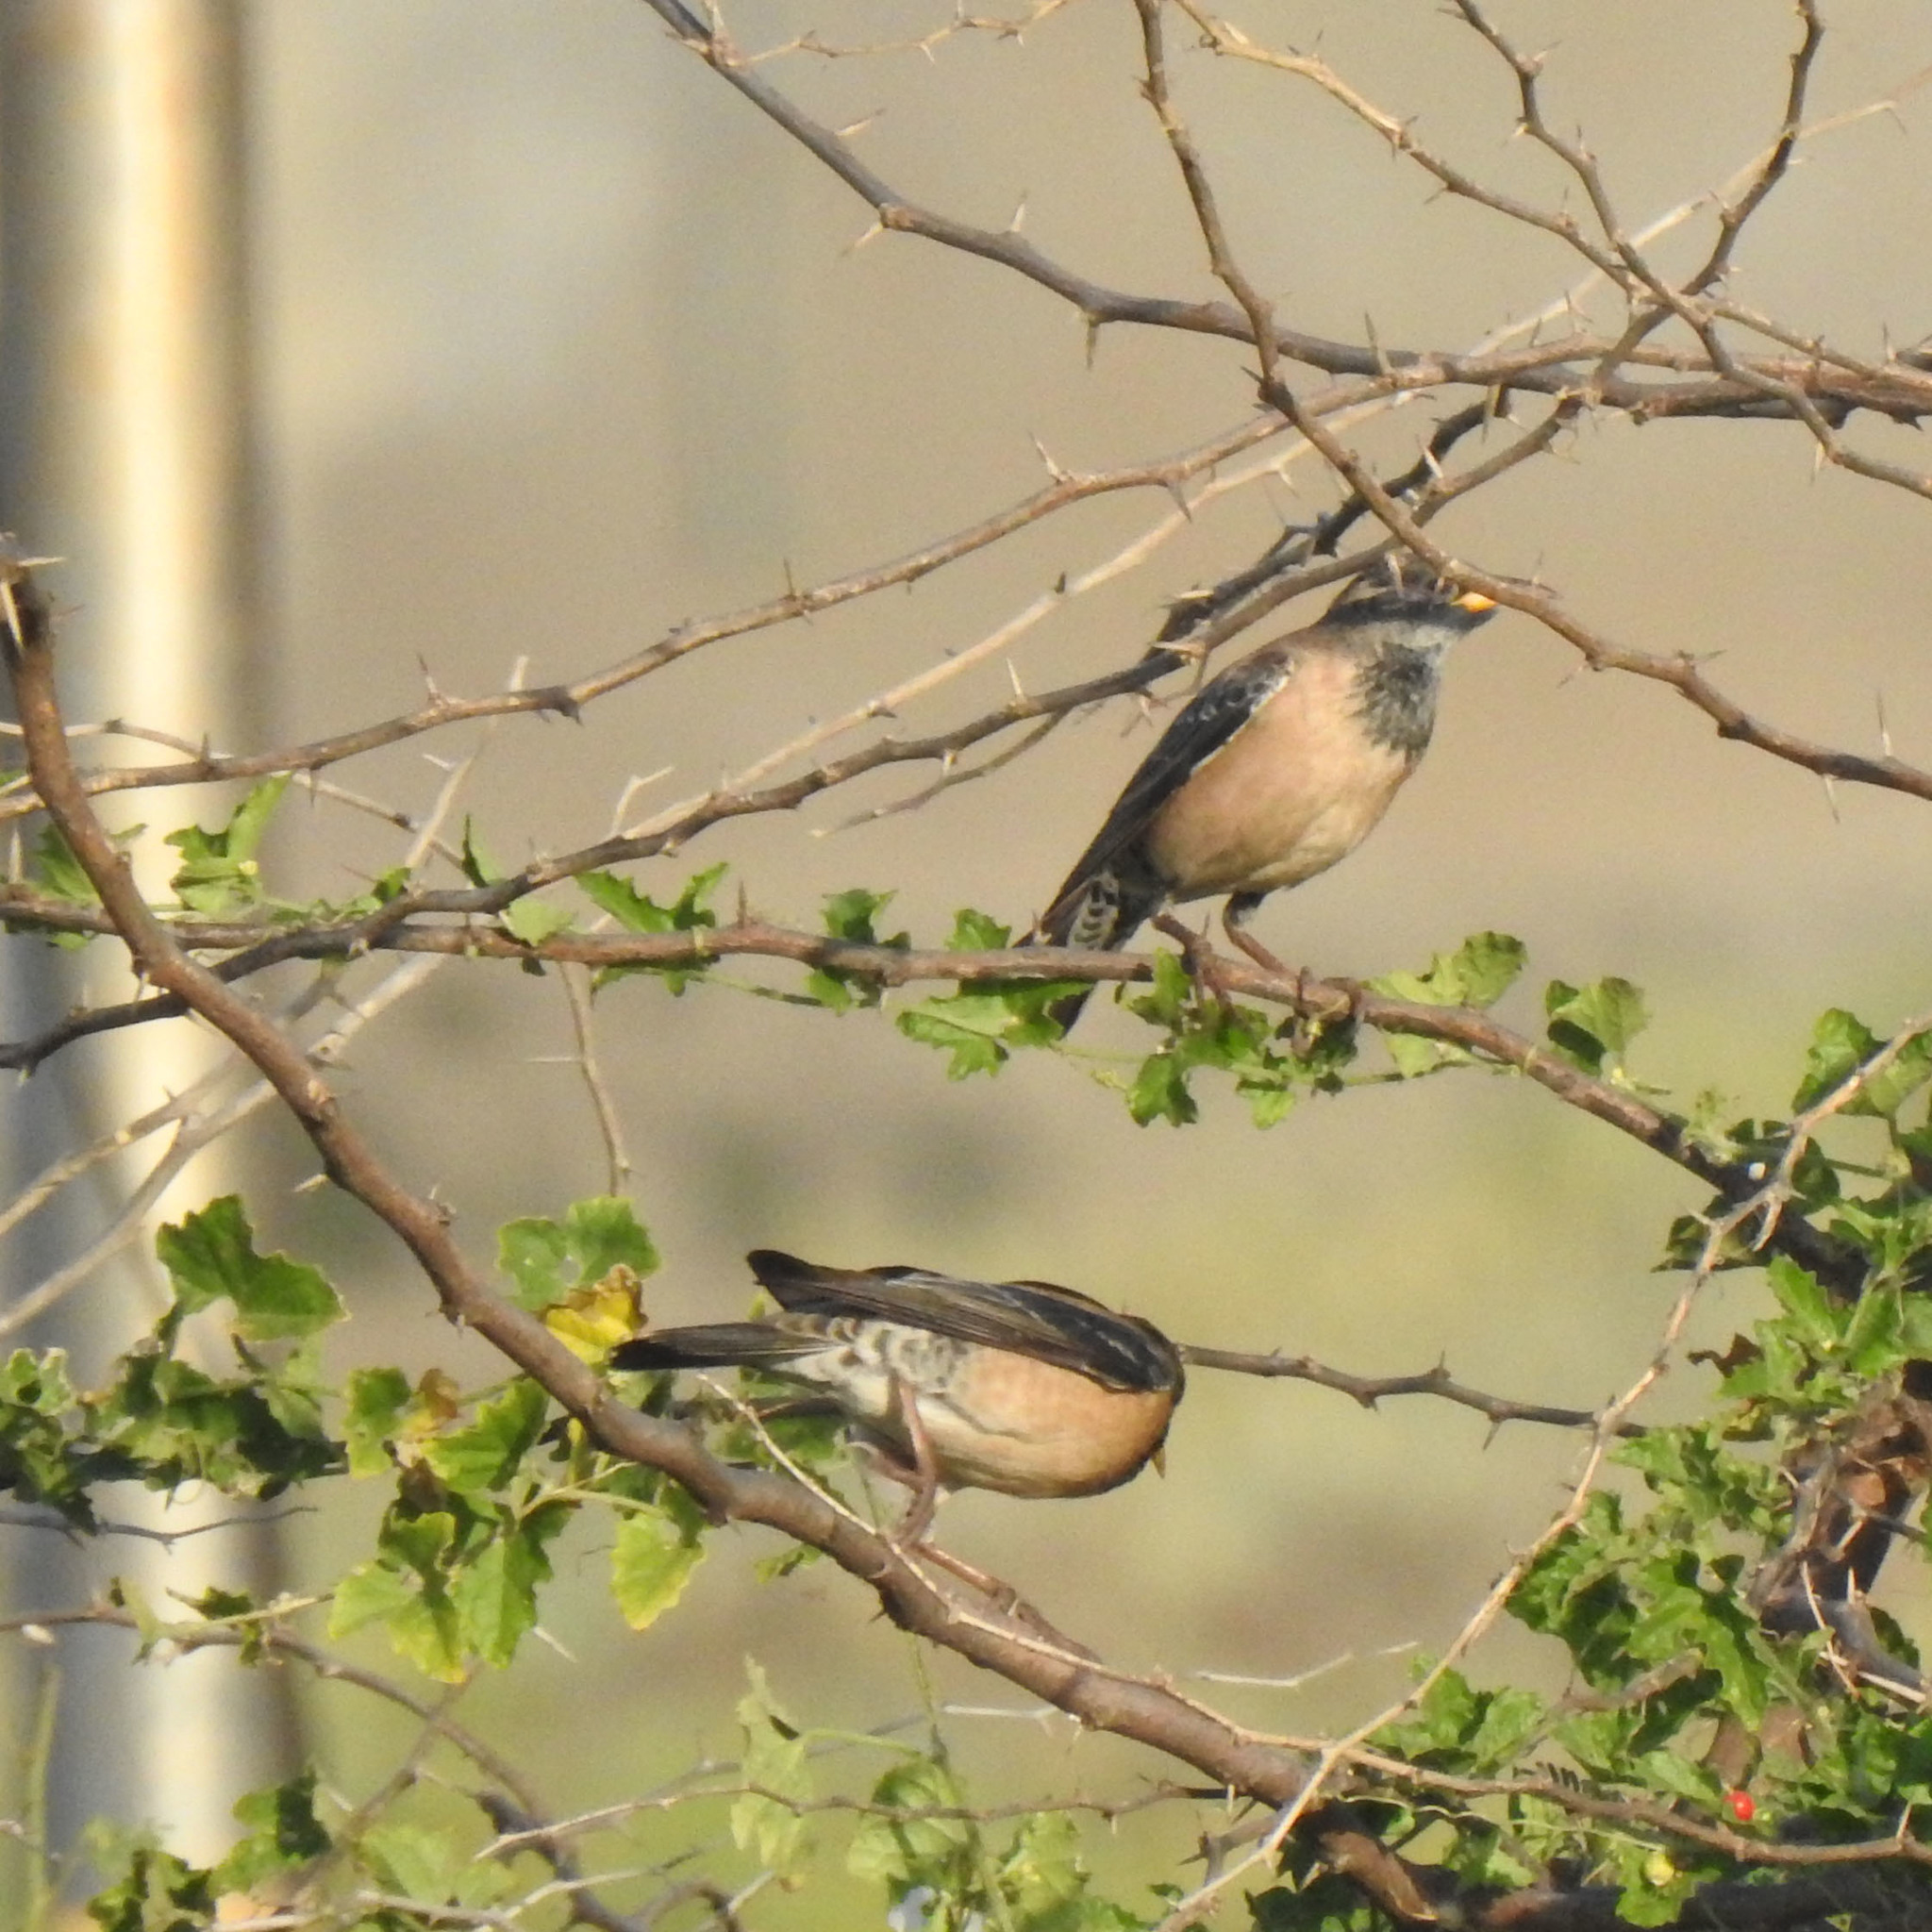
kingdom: Animalia
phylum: Chordata
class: Aves
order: Passeriformes
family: Sturnidae
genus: Pastor
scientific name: Pastor roseus
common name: Rosy starling
